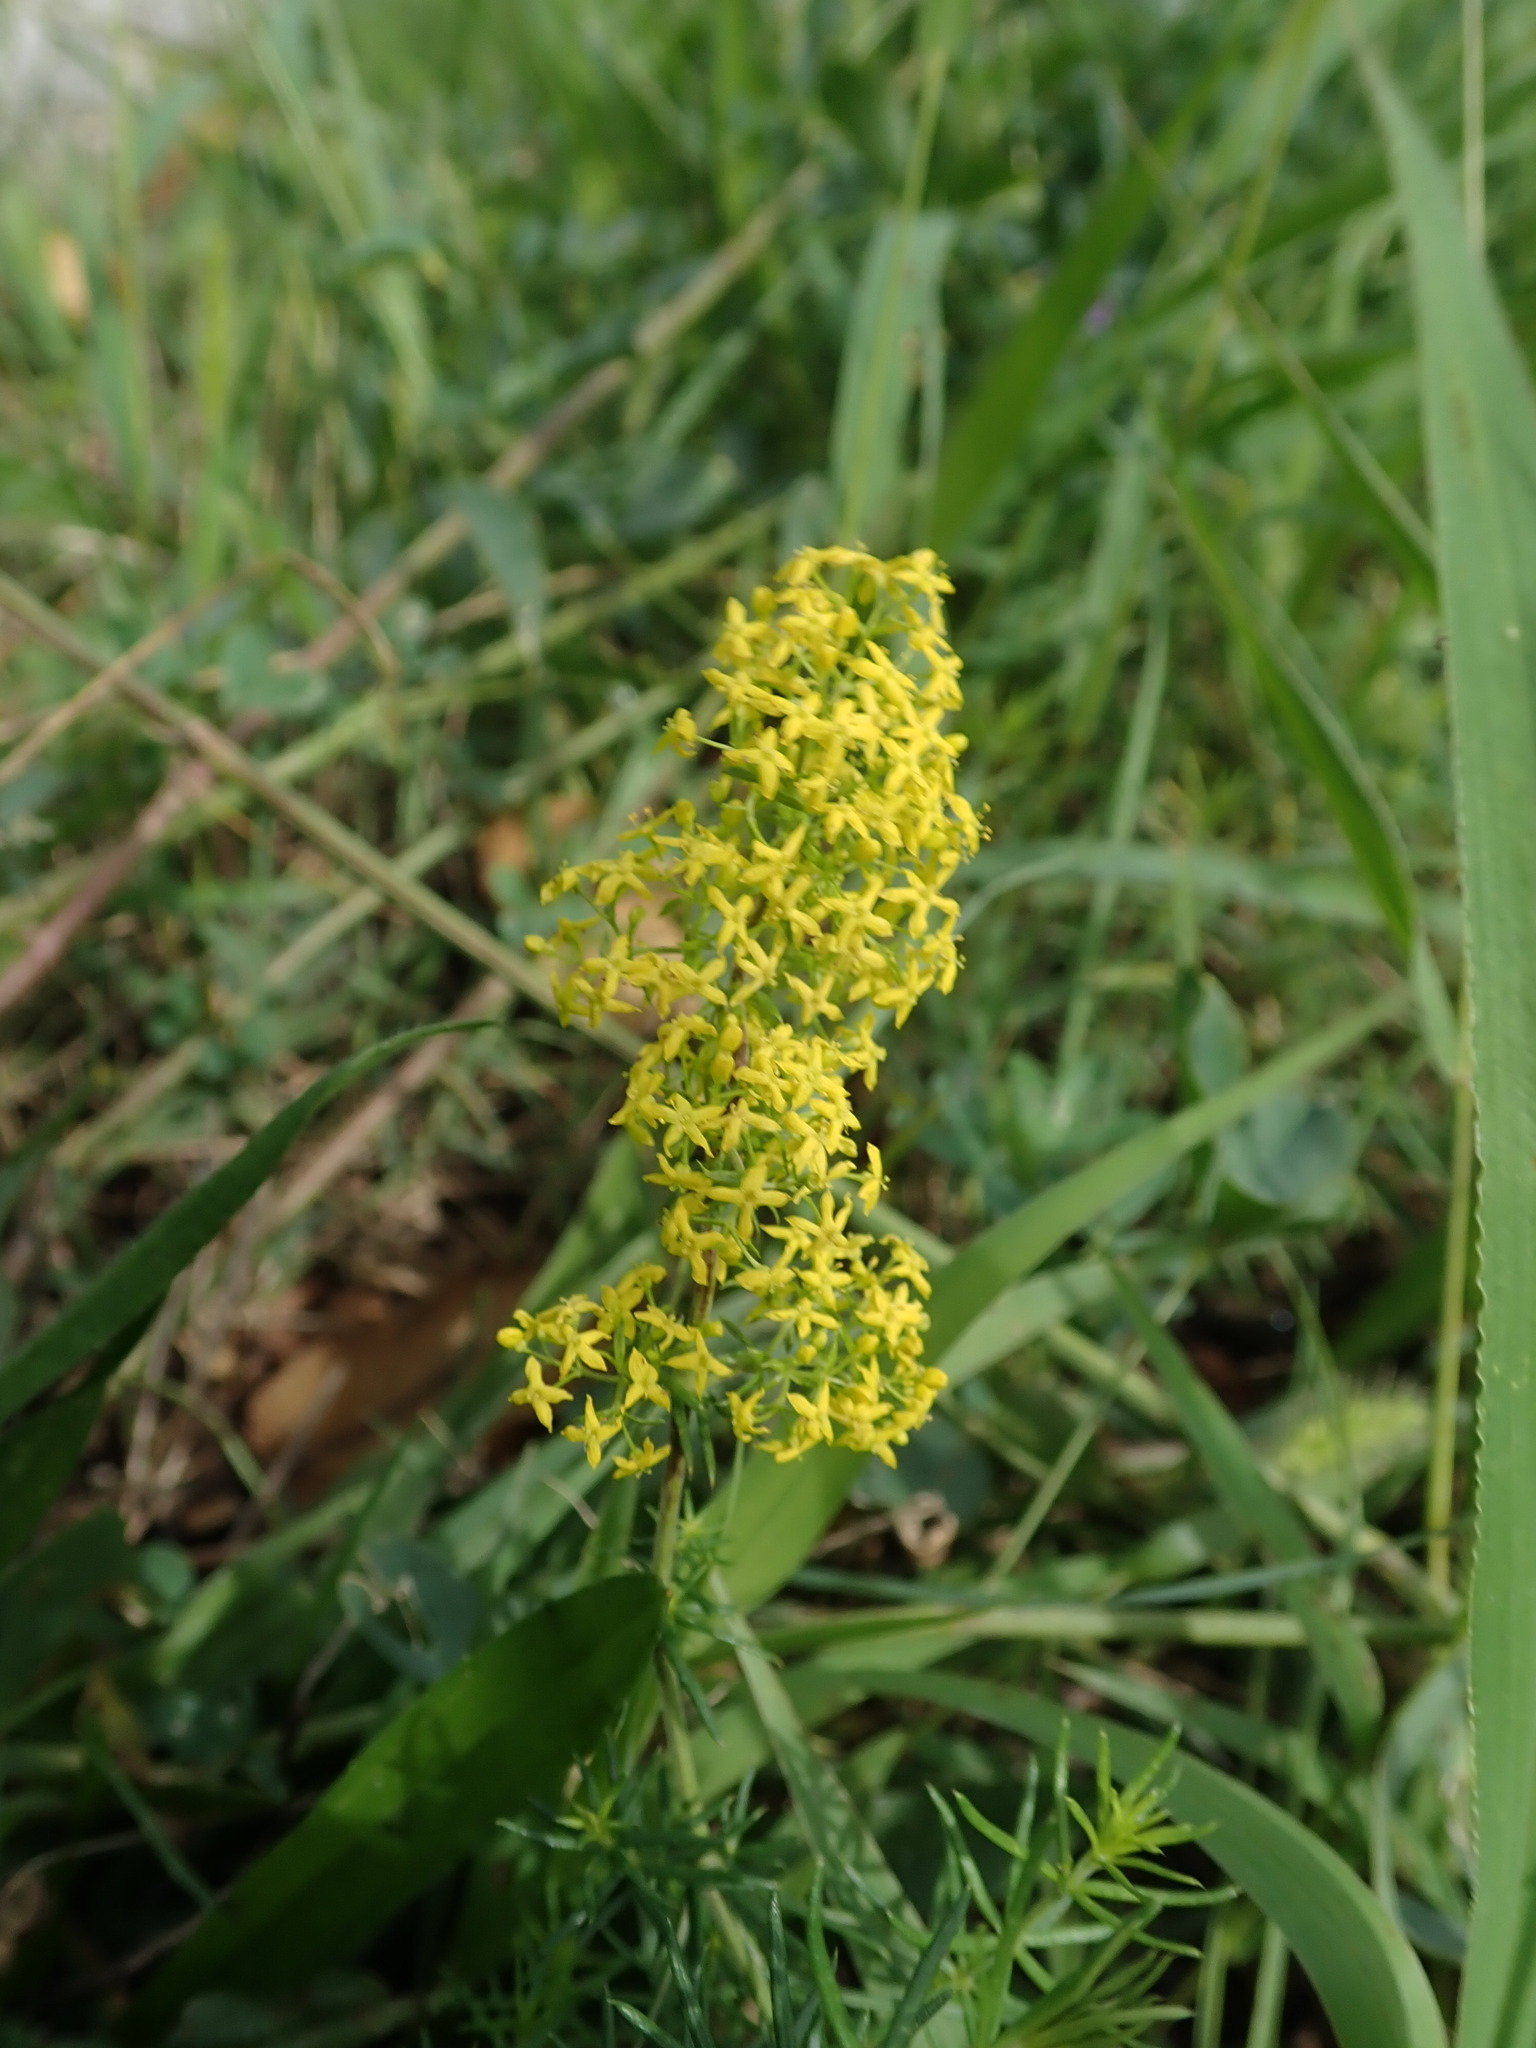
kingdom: Plantae
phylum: Tracheophyta
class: Magnoliopsida
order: Gentianales
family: Rubiaceae
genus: Galium
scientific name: Galium verum
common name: Lady's bedstraw
